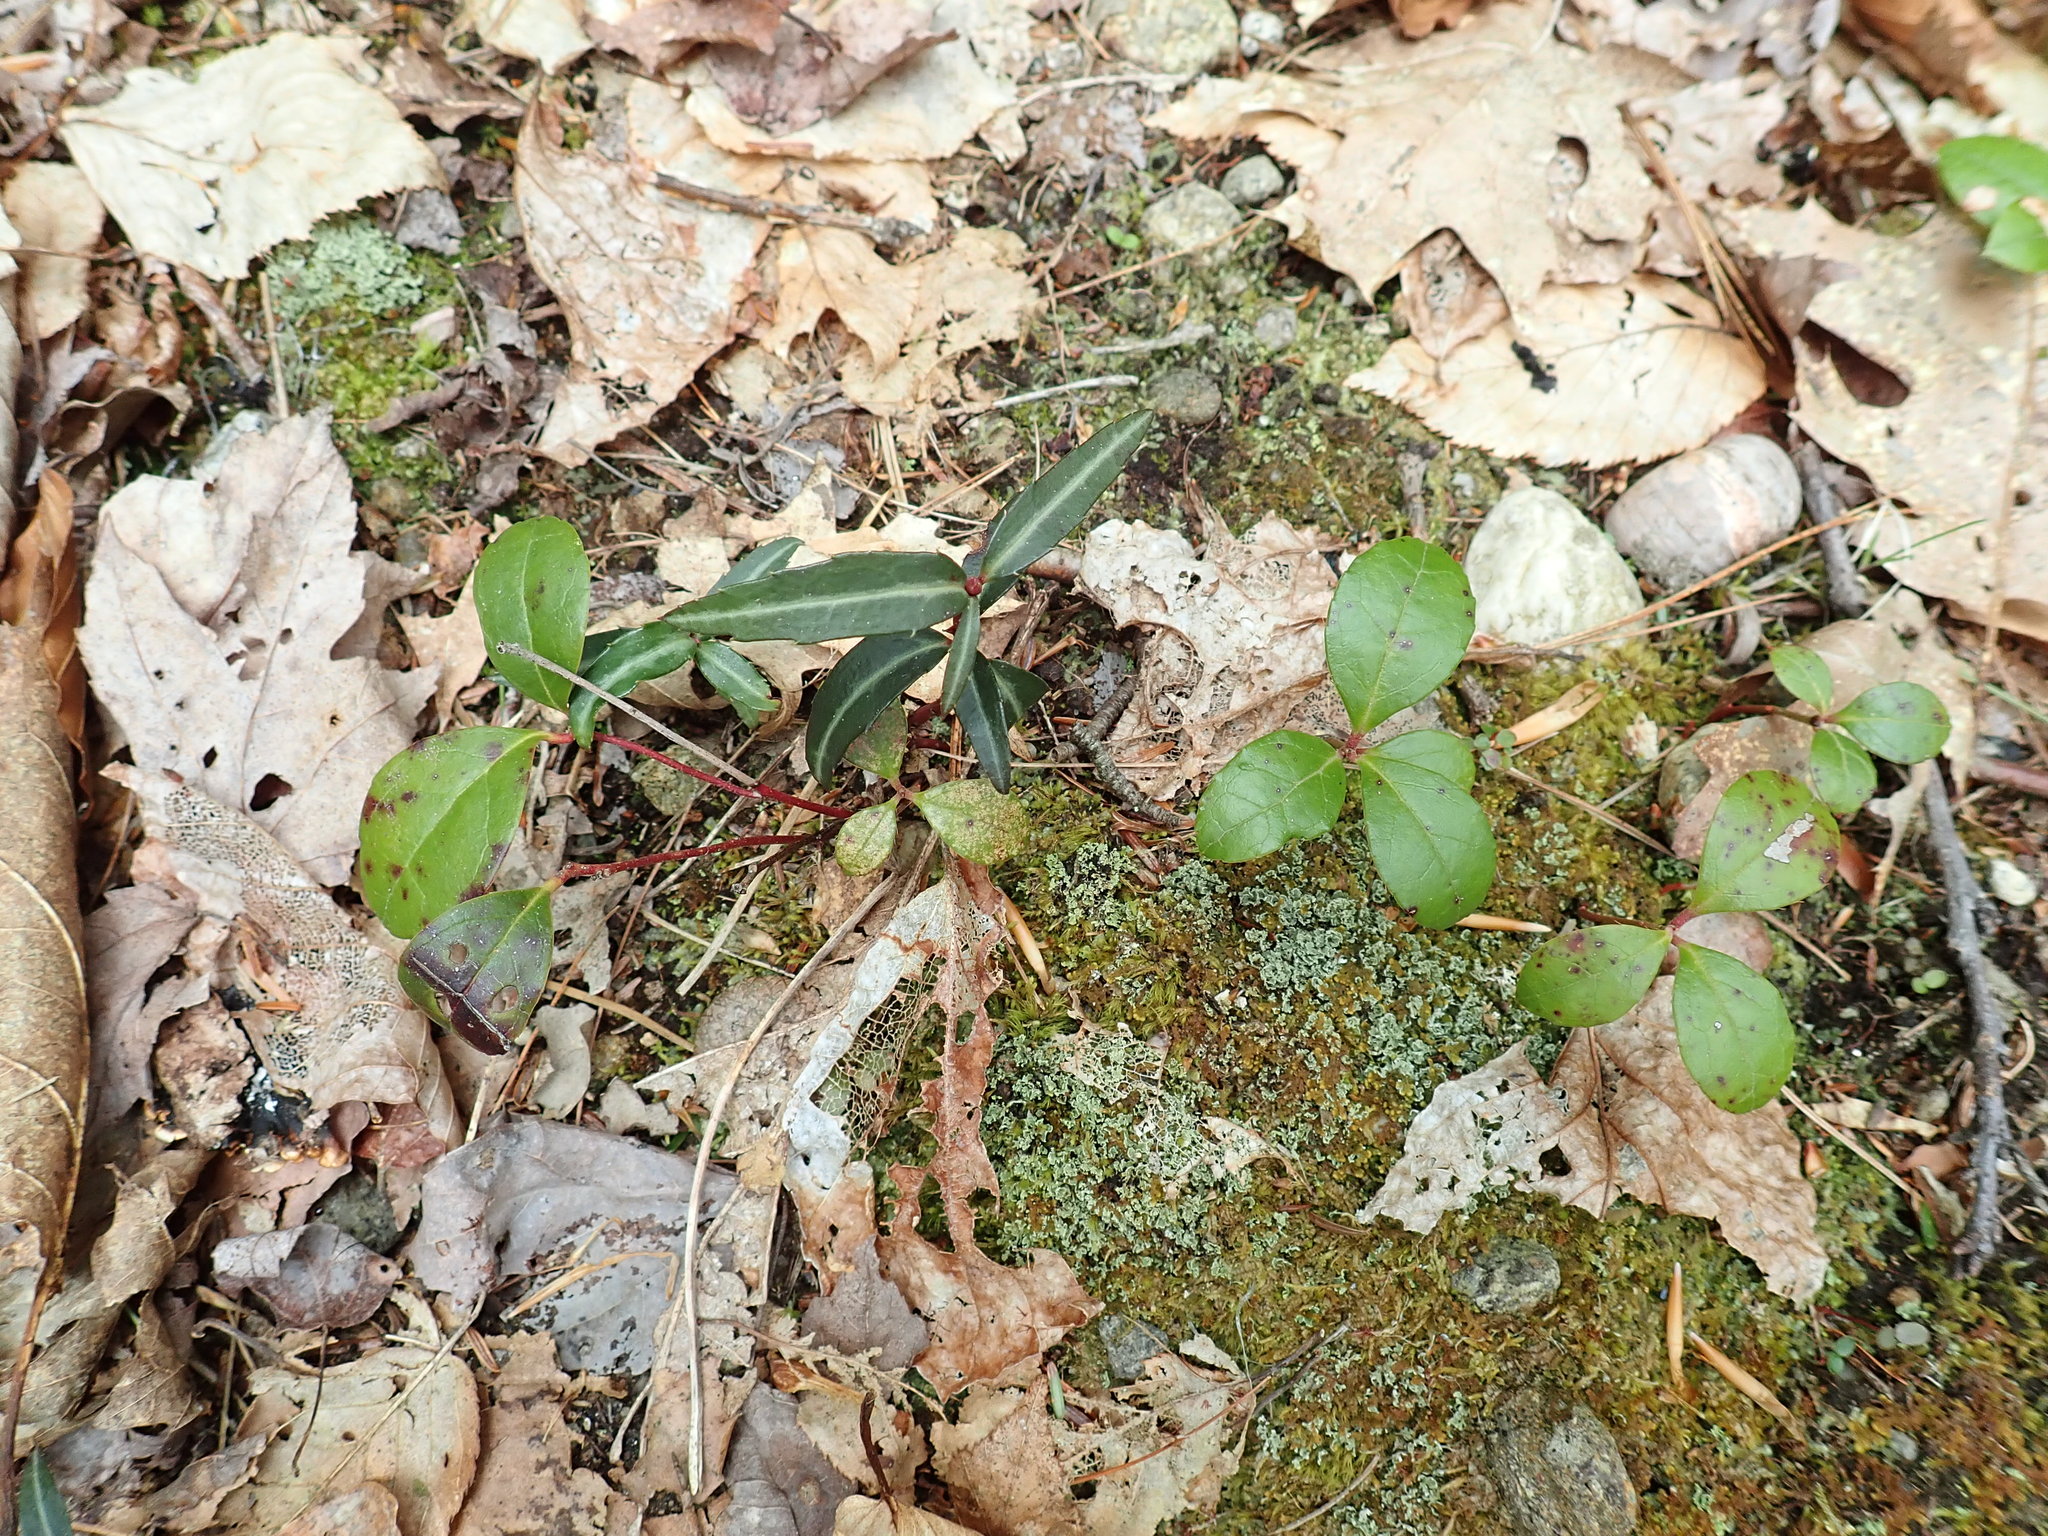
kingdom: Plantae
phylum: Tracheophyta
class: Magnoliopsida
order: Ericales
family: Ericaceae
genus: Chimaphila
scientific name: Chimaphila maculata
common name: Spotted pipsissewa
